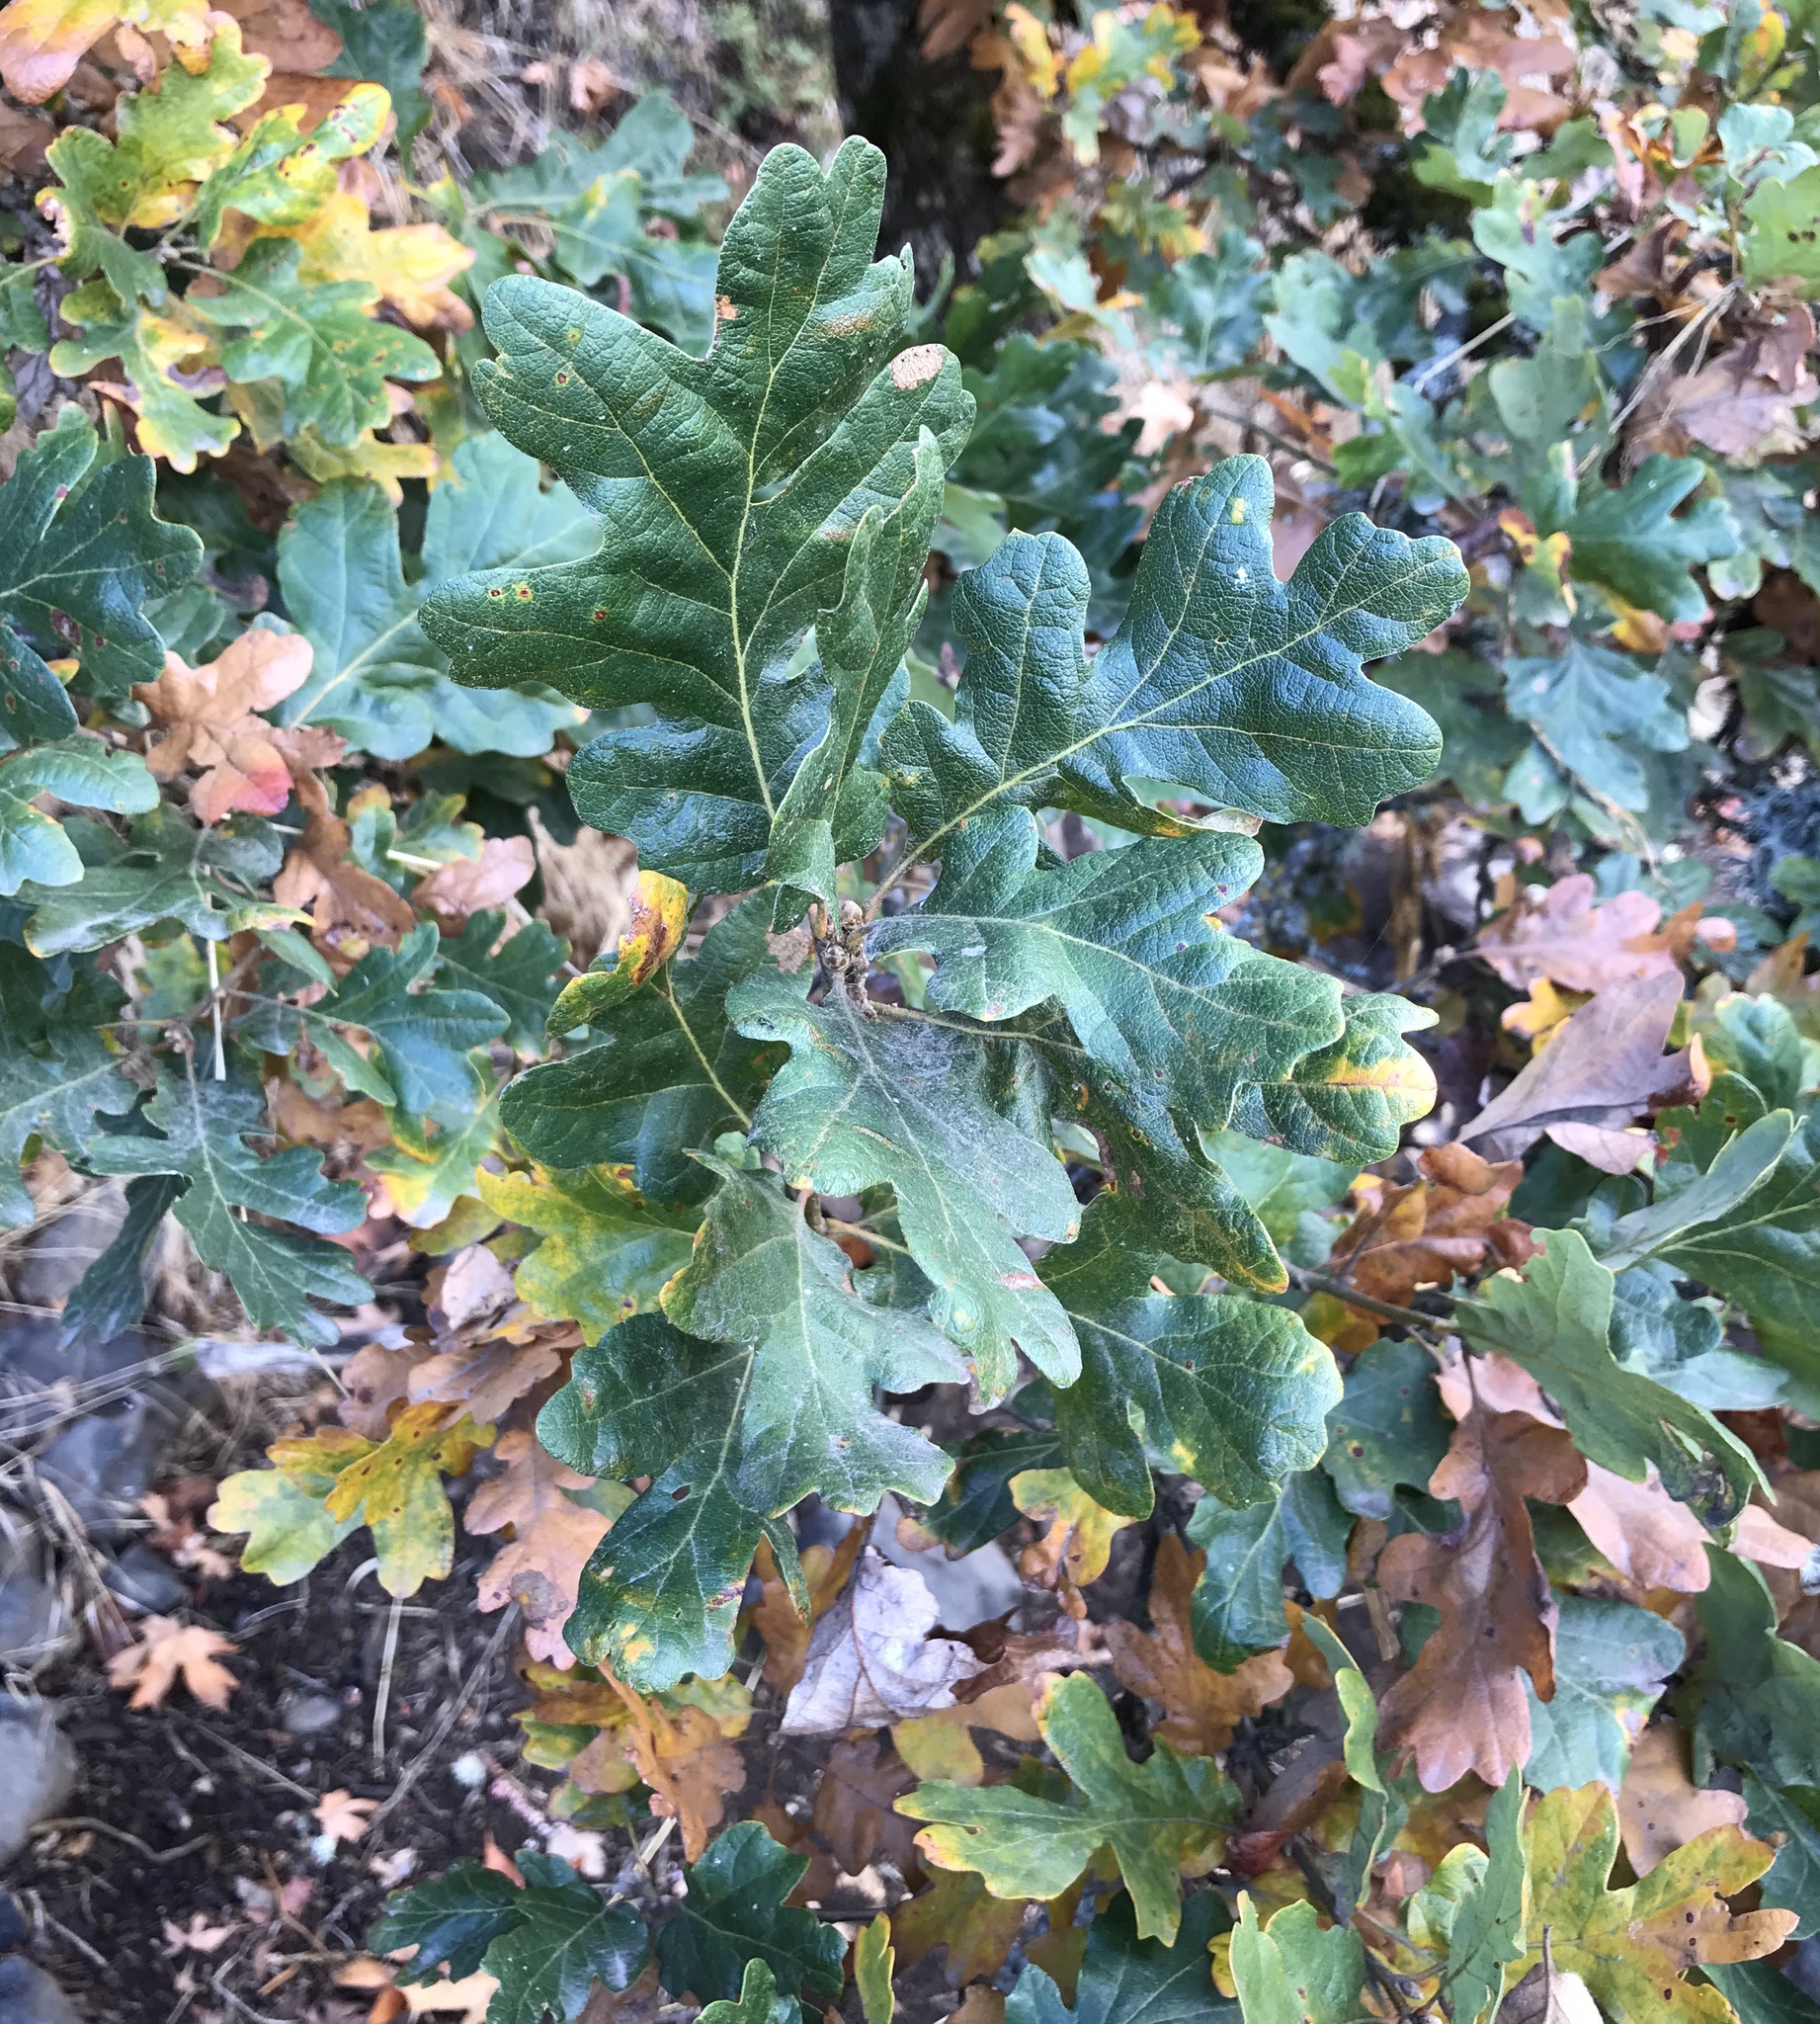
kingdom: Plantae
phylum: Tracheophyta
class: Magnoliopsida
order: Fagales
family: Fagaceae
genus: Quercus
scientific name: Quercus garryana
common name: Garry oak
